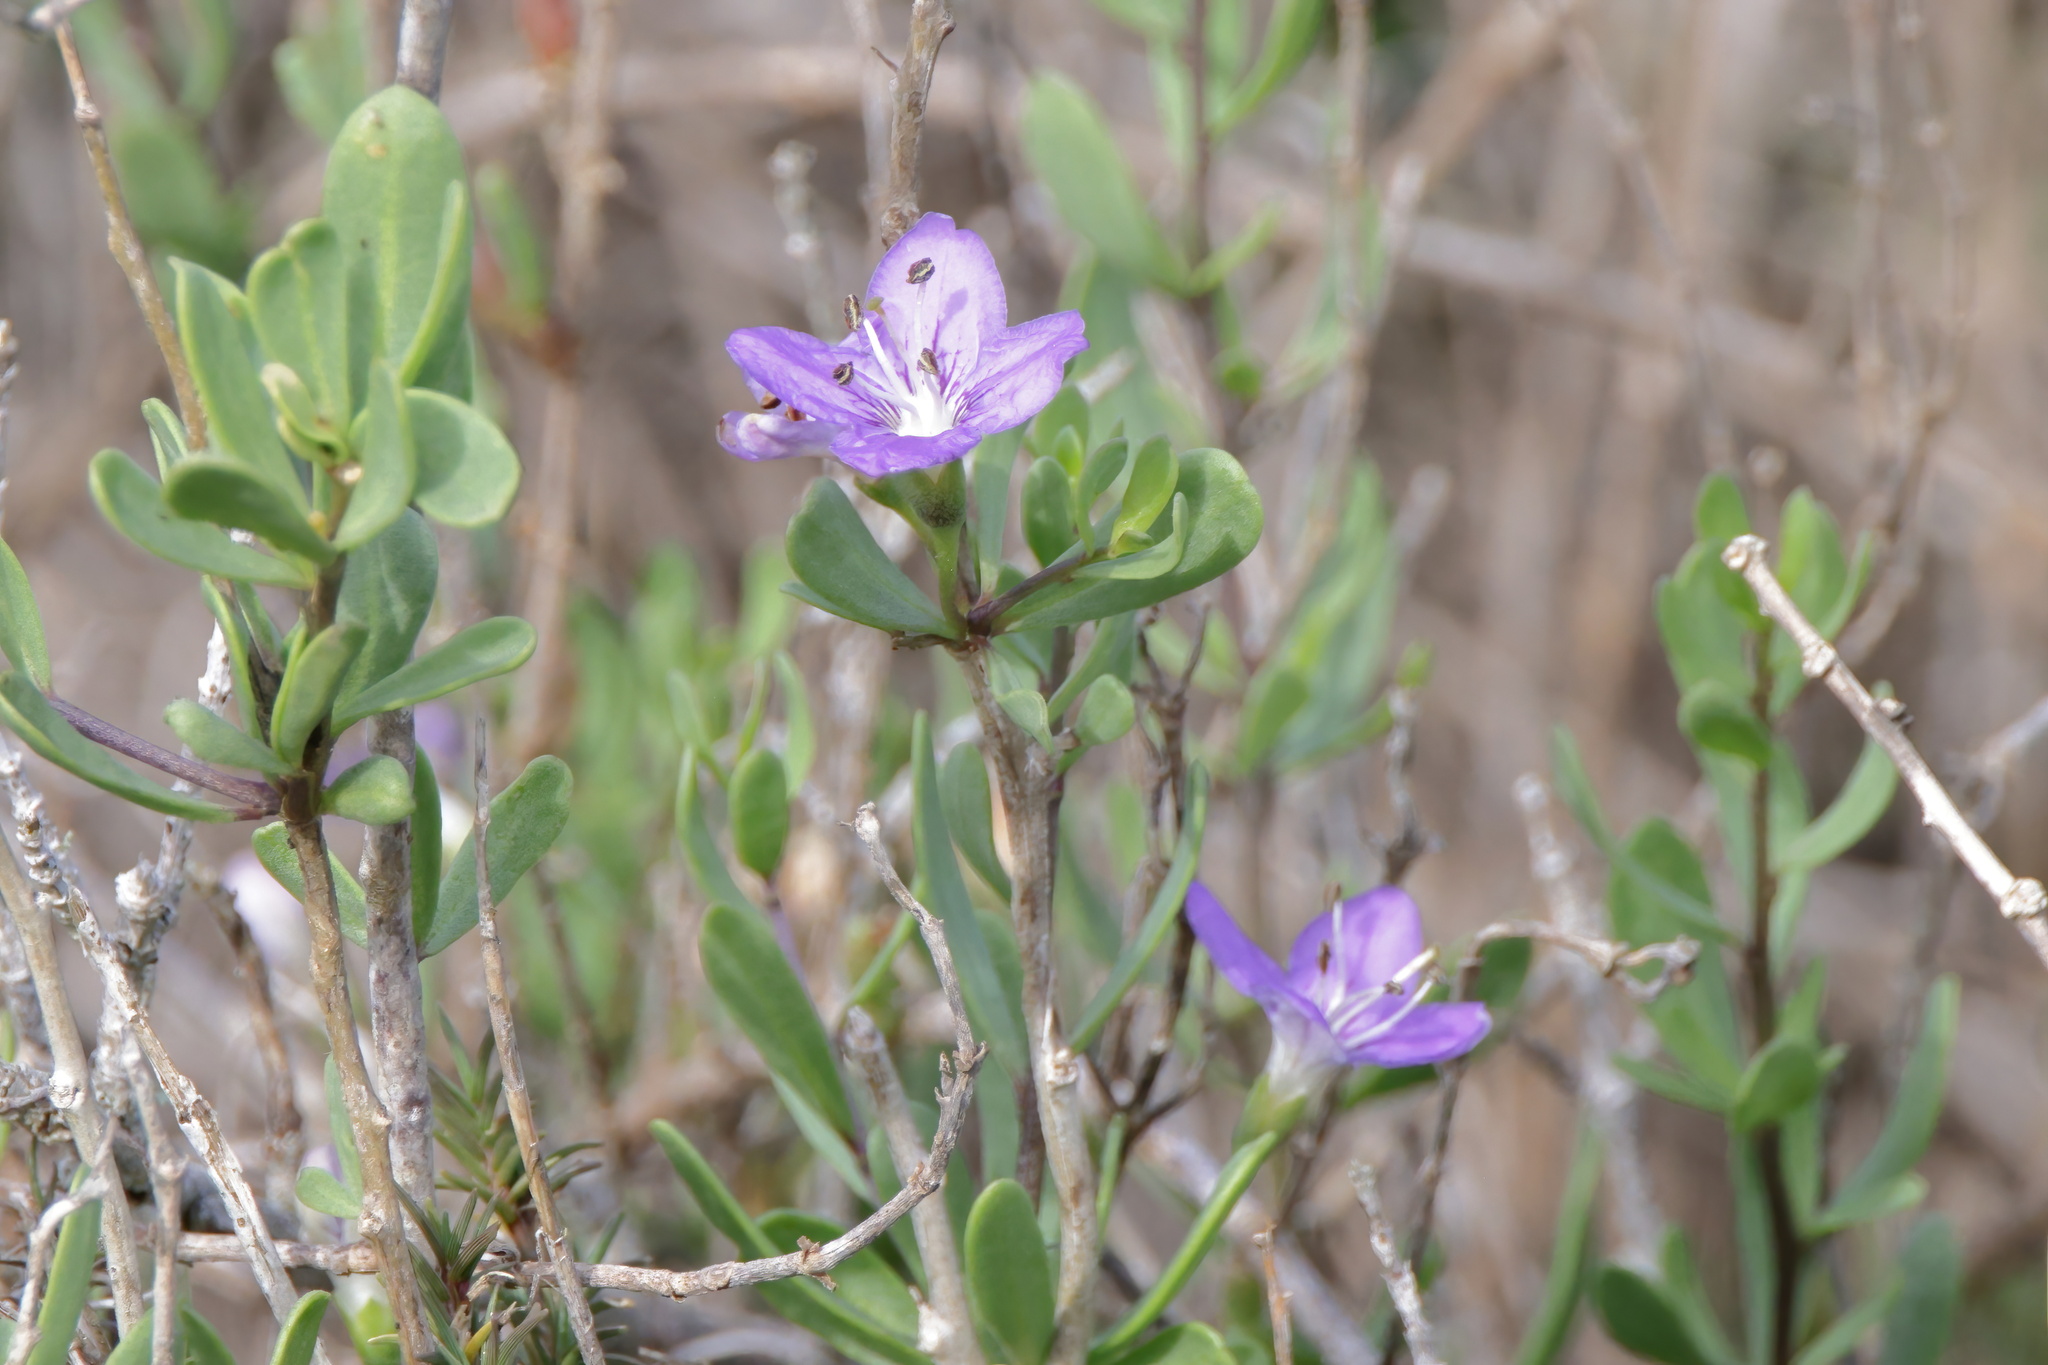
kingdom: Plantae
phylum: Tracheophyta
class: Magnoliopsida
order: Solanales
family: Solanaceae
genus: Lycium
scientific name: Lycium carolinianum
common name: Christmasberry
